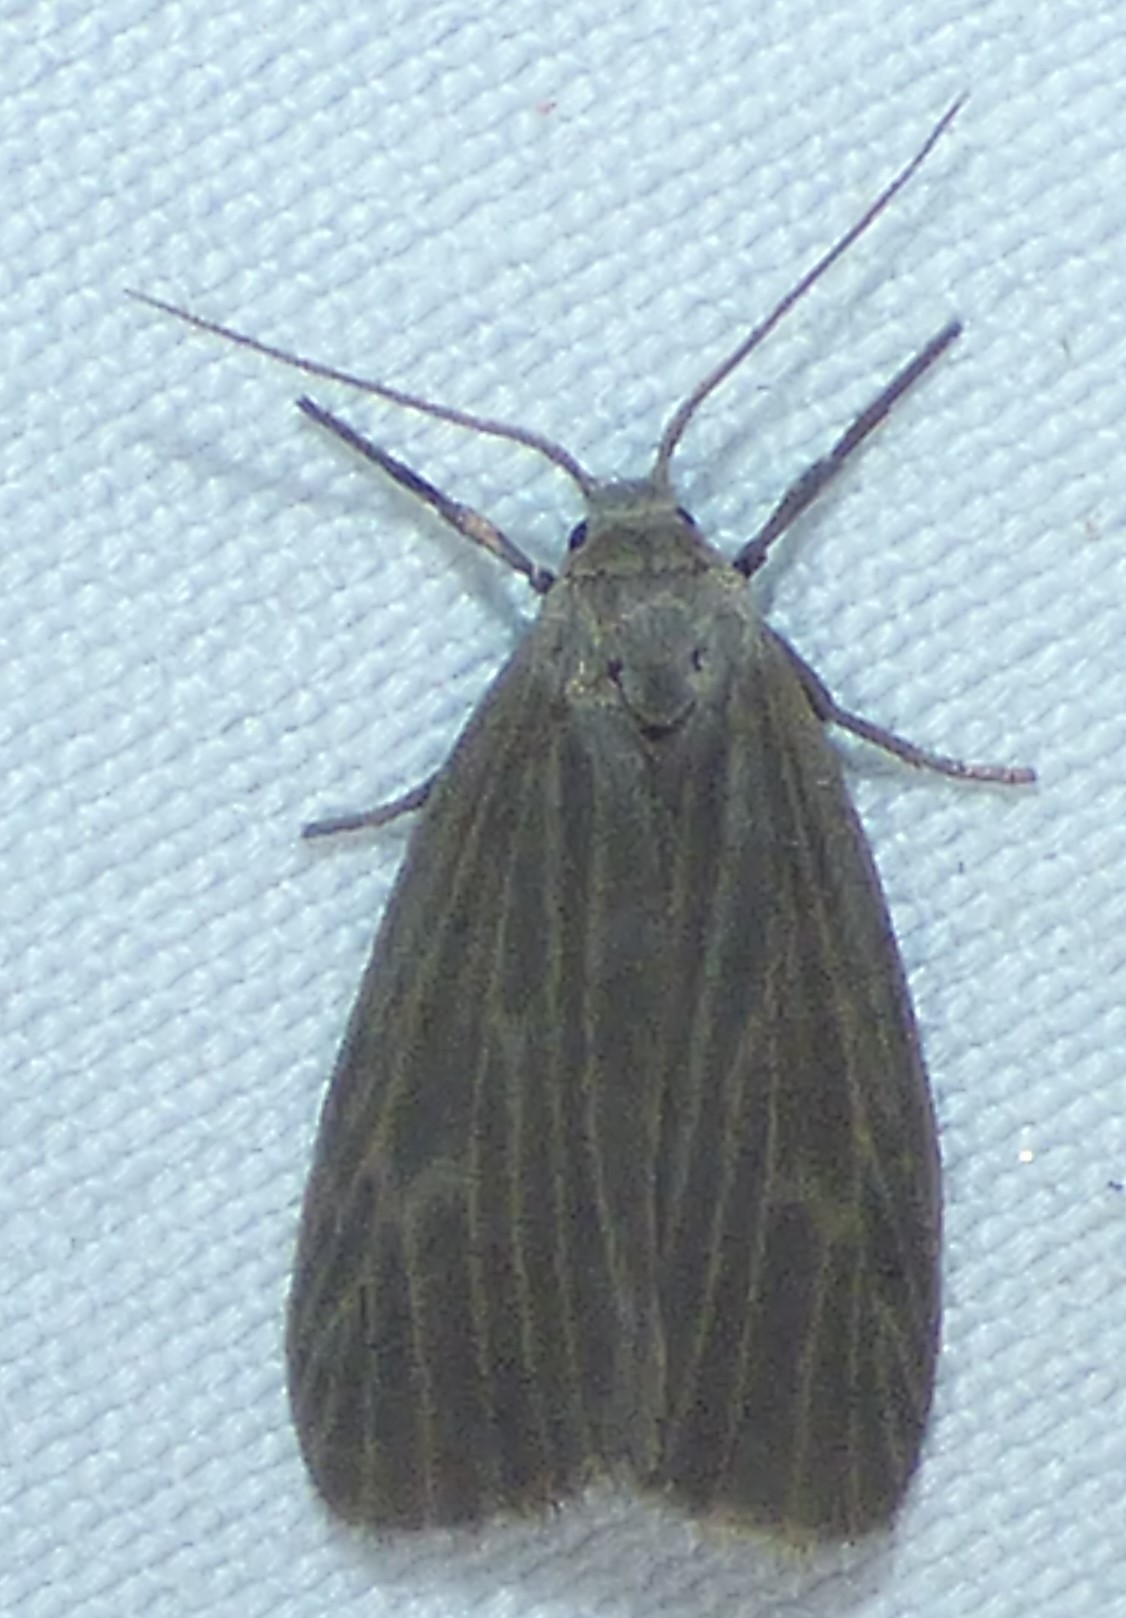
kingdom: Animalia
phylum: Arthropoda
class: Insecta
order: Lepidoptera
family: Erebidae
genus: Crambidia
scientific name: Crambidia pallida
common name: Pale lichen moth
